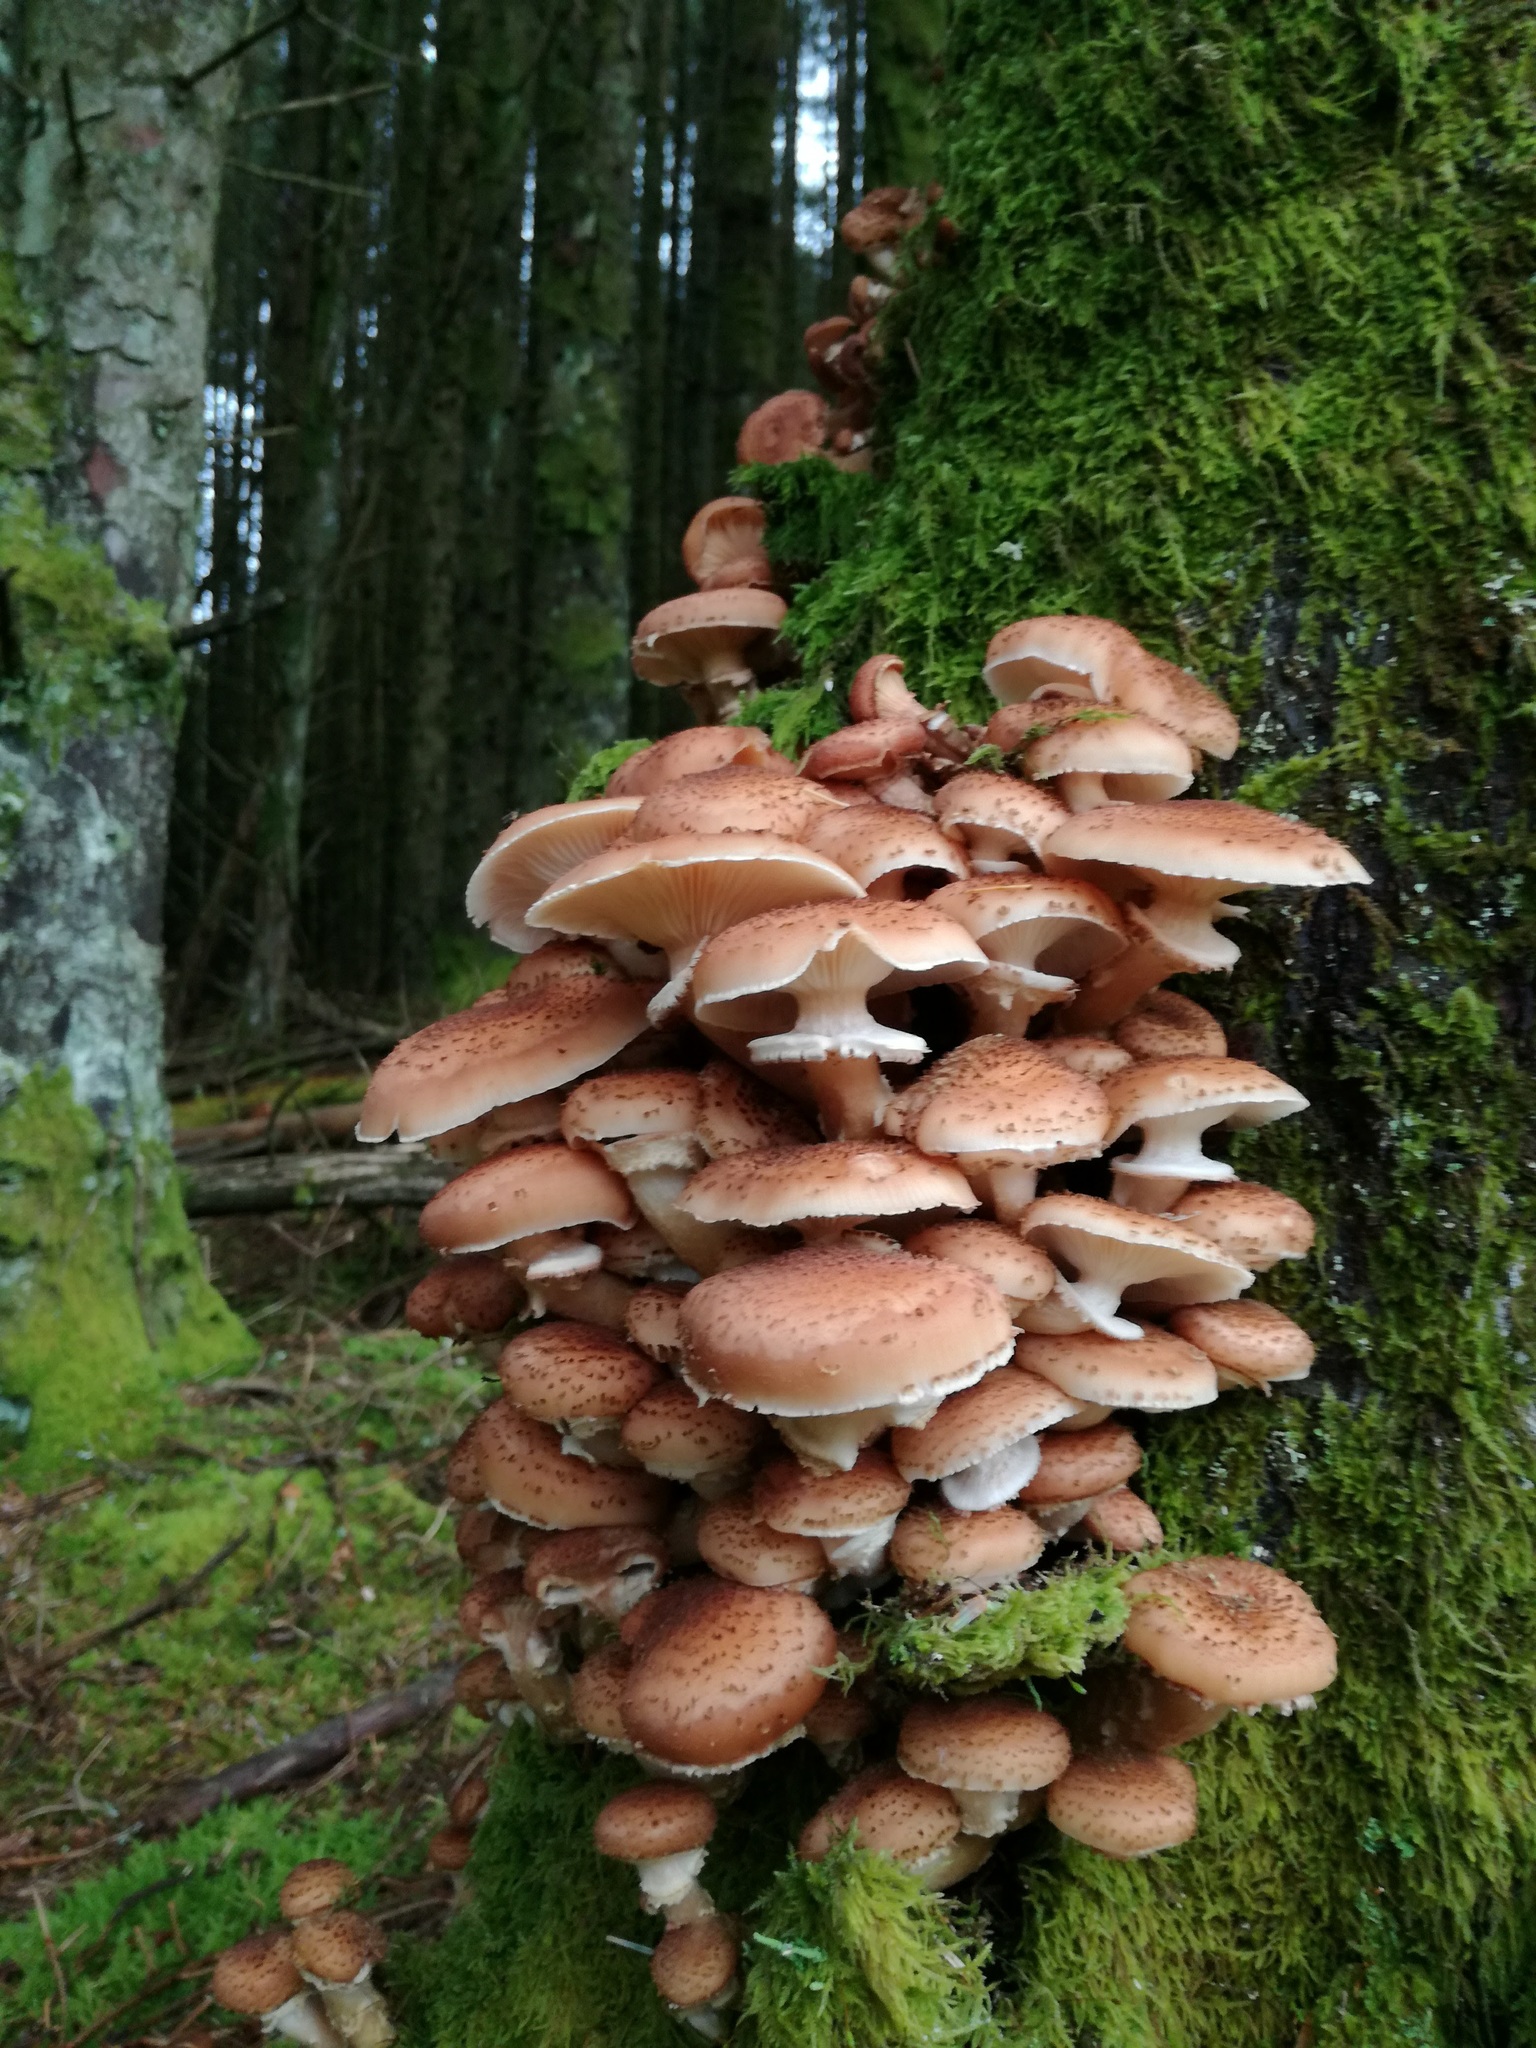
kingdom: Fungi
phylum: Basidiomycota
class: Agaricomycetes
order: Agaricales
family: Physalacriaceae
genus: Armillaria
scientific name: Armillaria mellea
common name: Honey fungus
